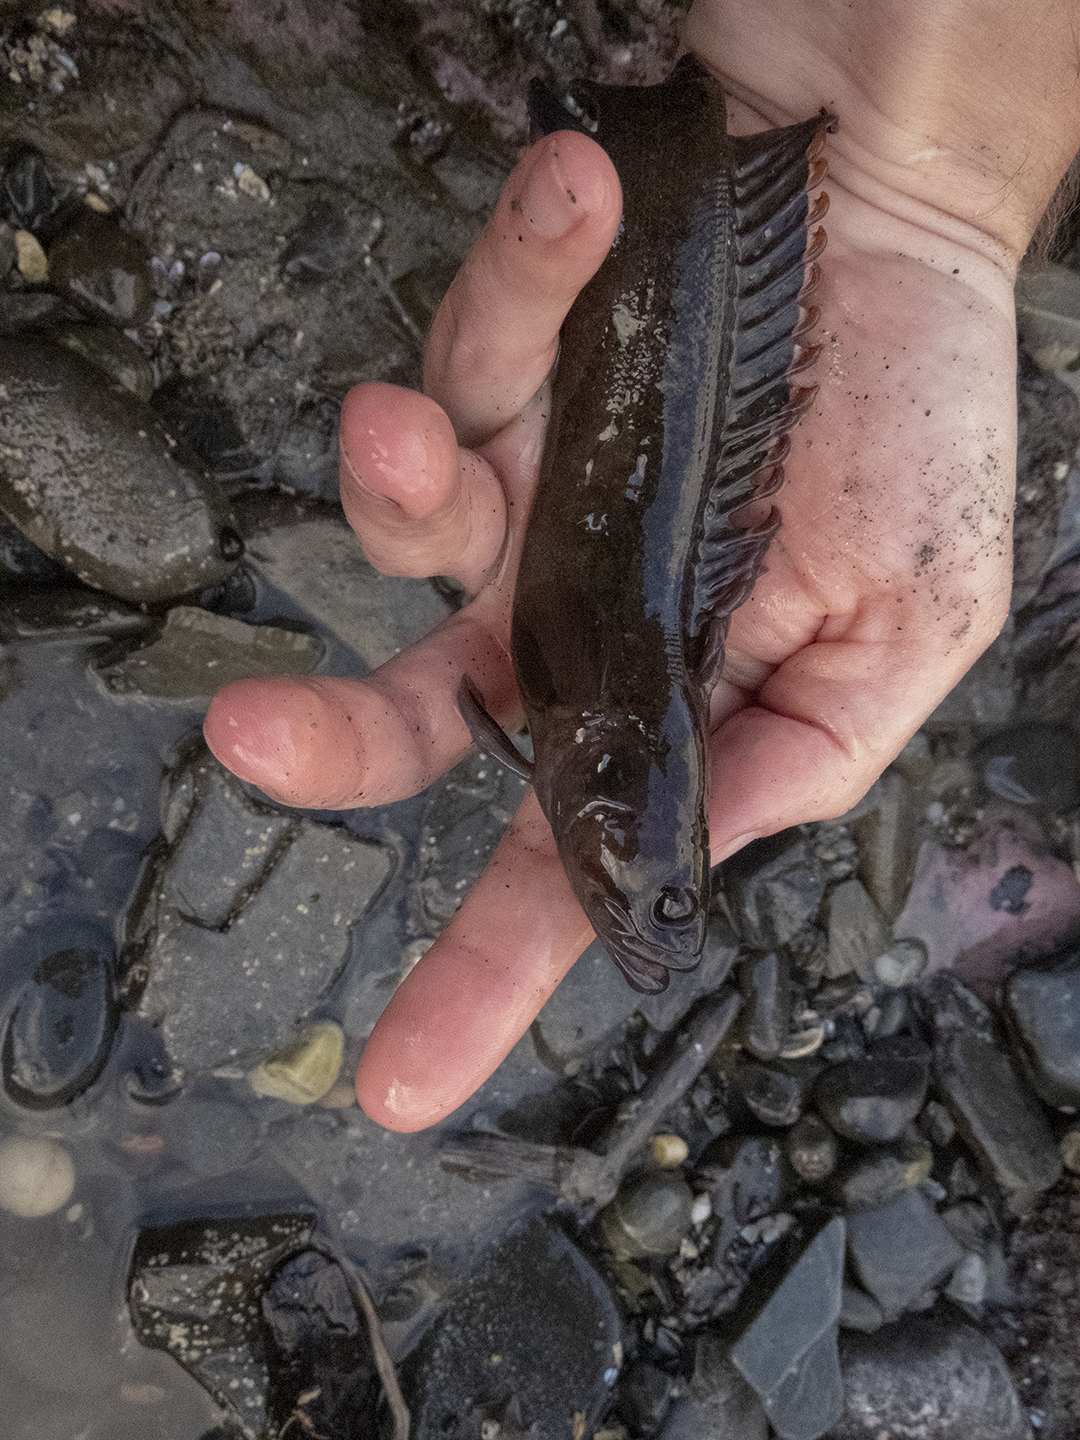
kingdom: Animalia
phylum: Chordata
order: Perciformes
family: Plesiopidae
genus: Acanthoclinus
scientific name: Acanthoclinus marilynae
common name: Stout rockfish
